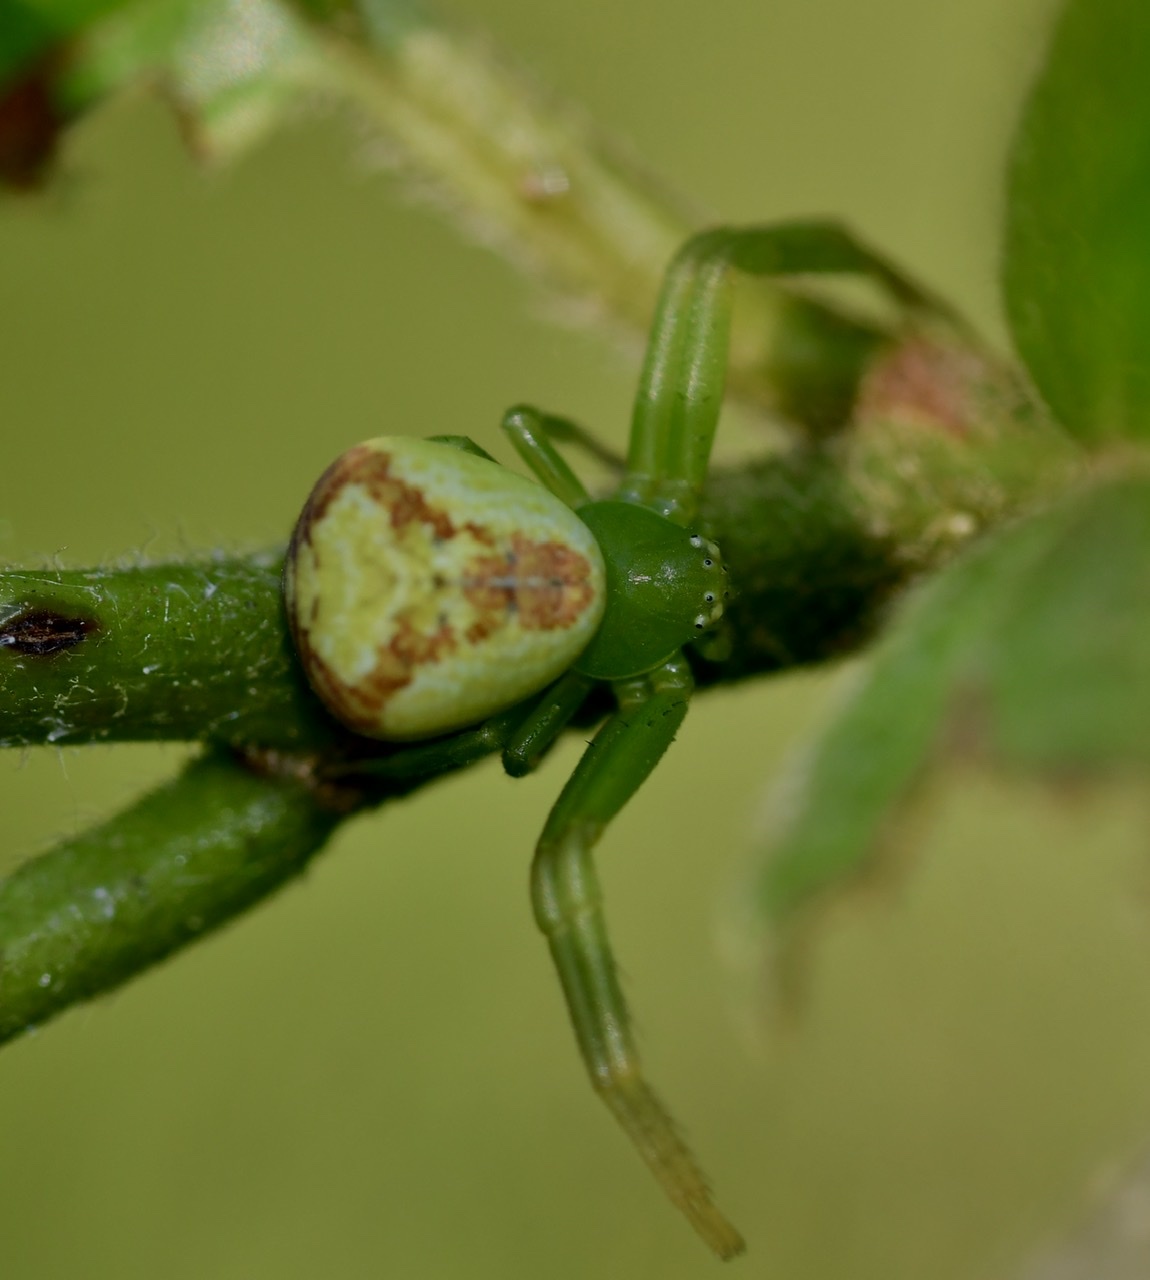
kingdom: Animalia
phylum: Arthropoda
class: Arachnida
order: Araneae
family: Thomisidae
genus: Ebrechtella
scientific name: Ebrechtella tricuspidata
